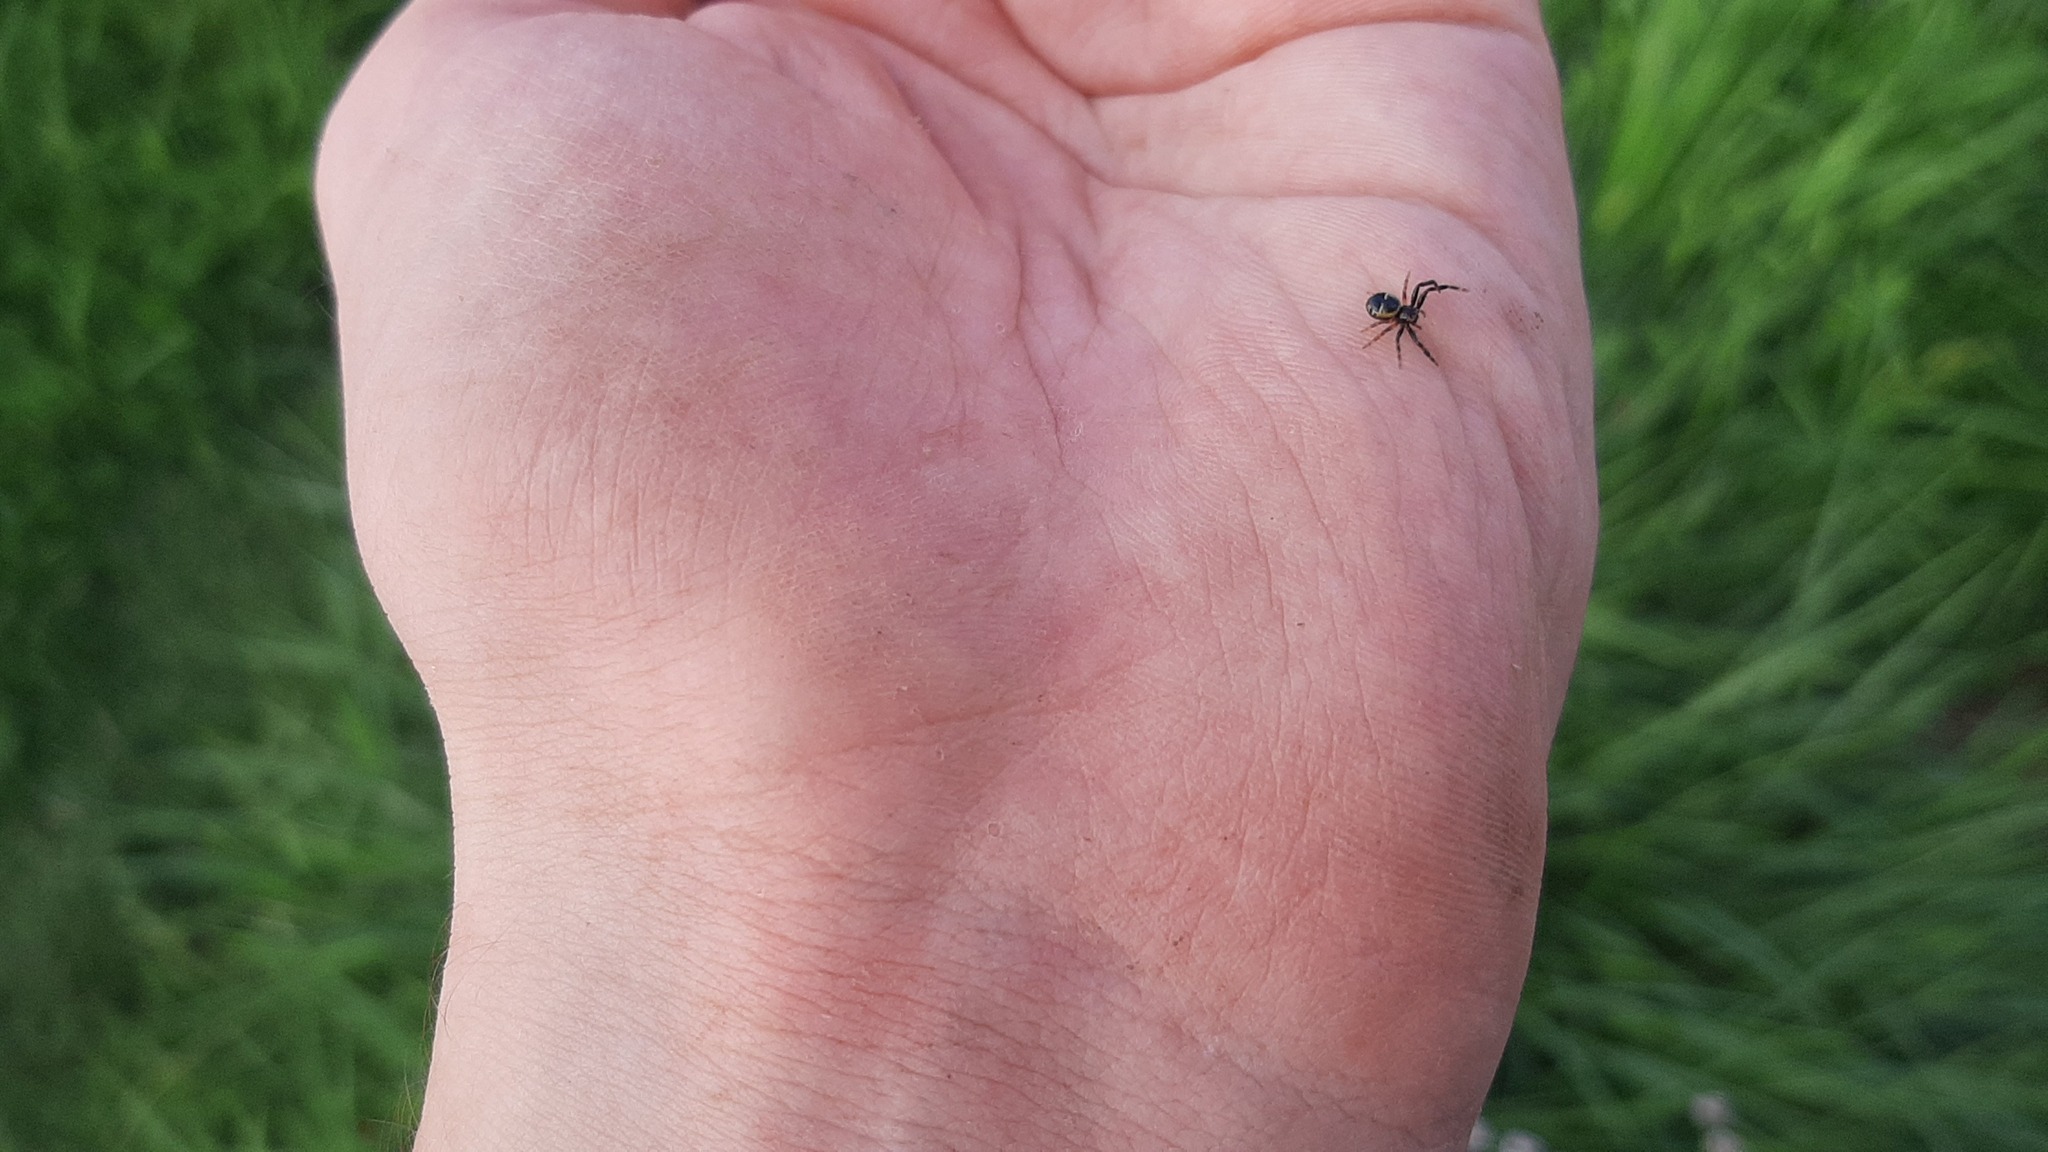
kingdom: Animalia
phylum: Arthropoda
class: Arachnida
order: Araneae
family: Thomisidae
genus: Synema
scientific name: Synema globosum
